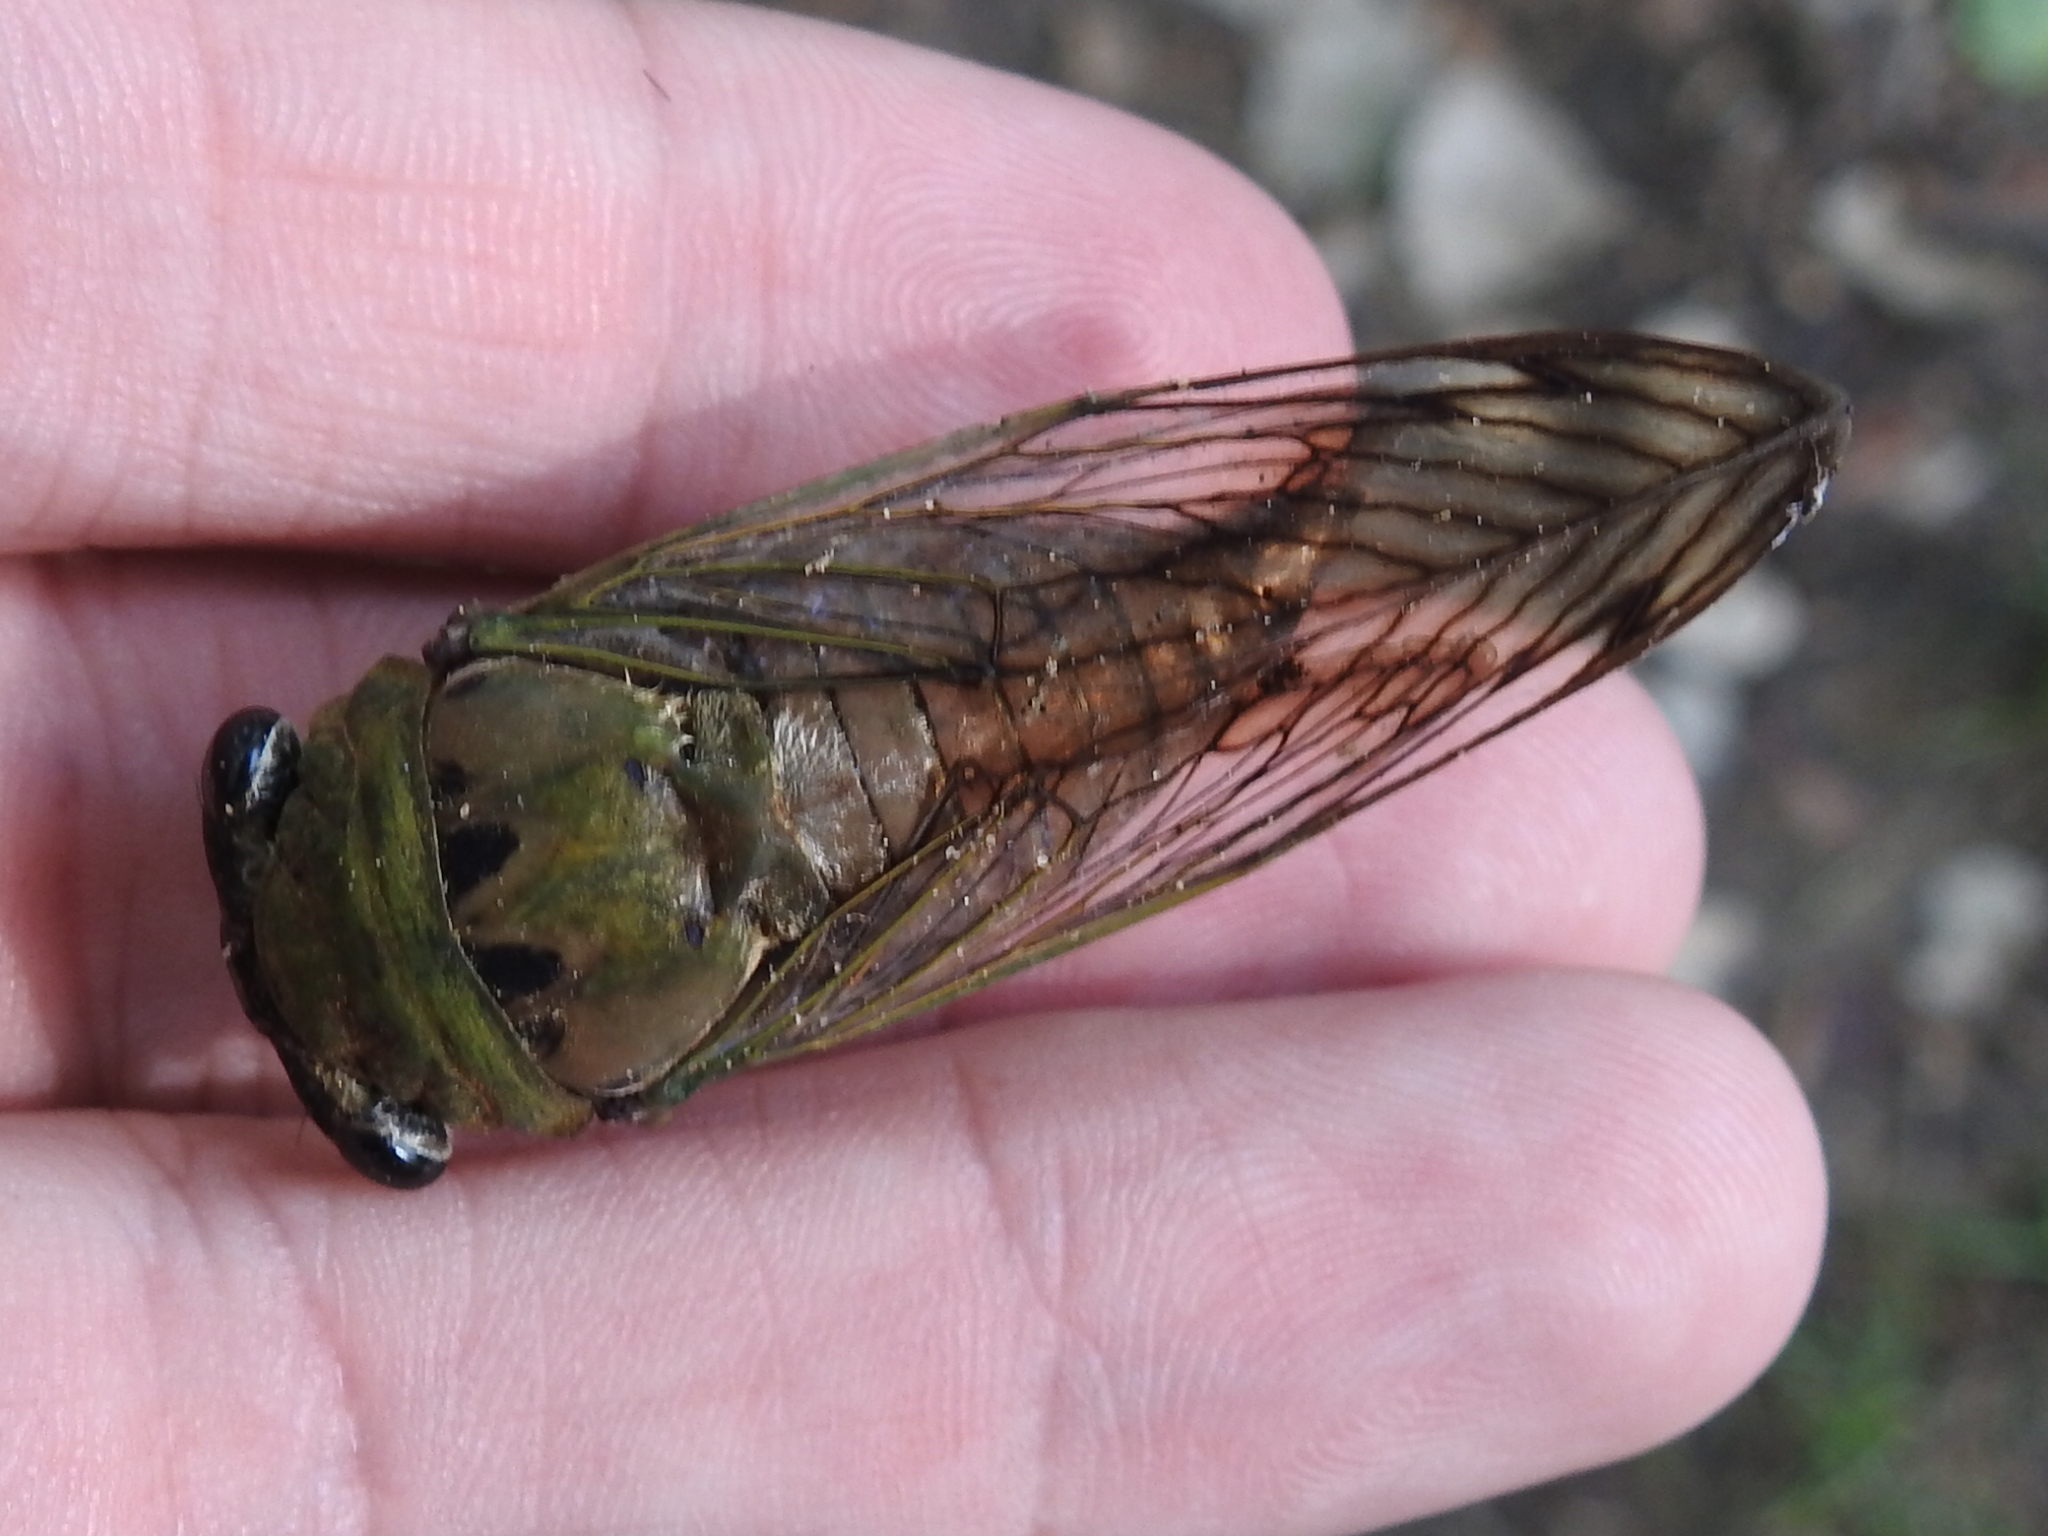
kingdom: Animalia
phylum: Arthropoda
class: Insecta
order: Hemiptera
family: Cicadidae
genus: Neotibicen
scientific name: Neotibicen superbus
